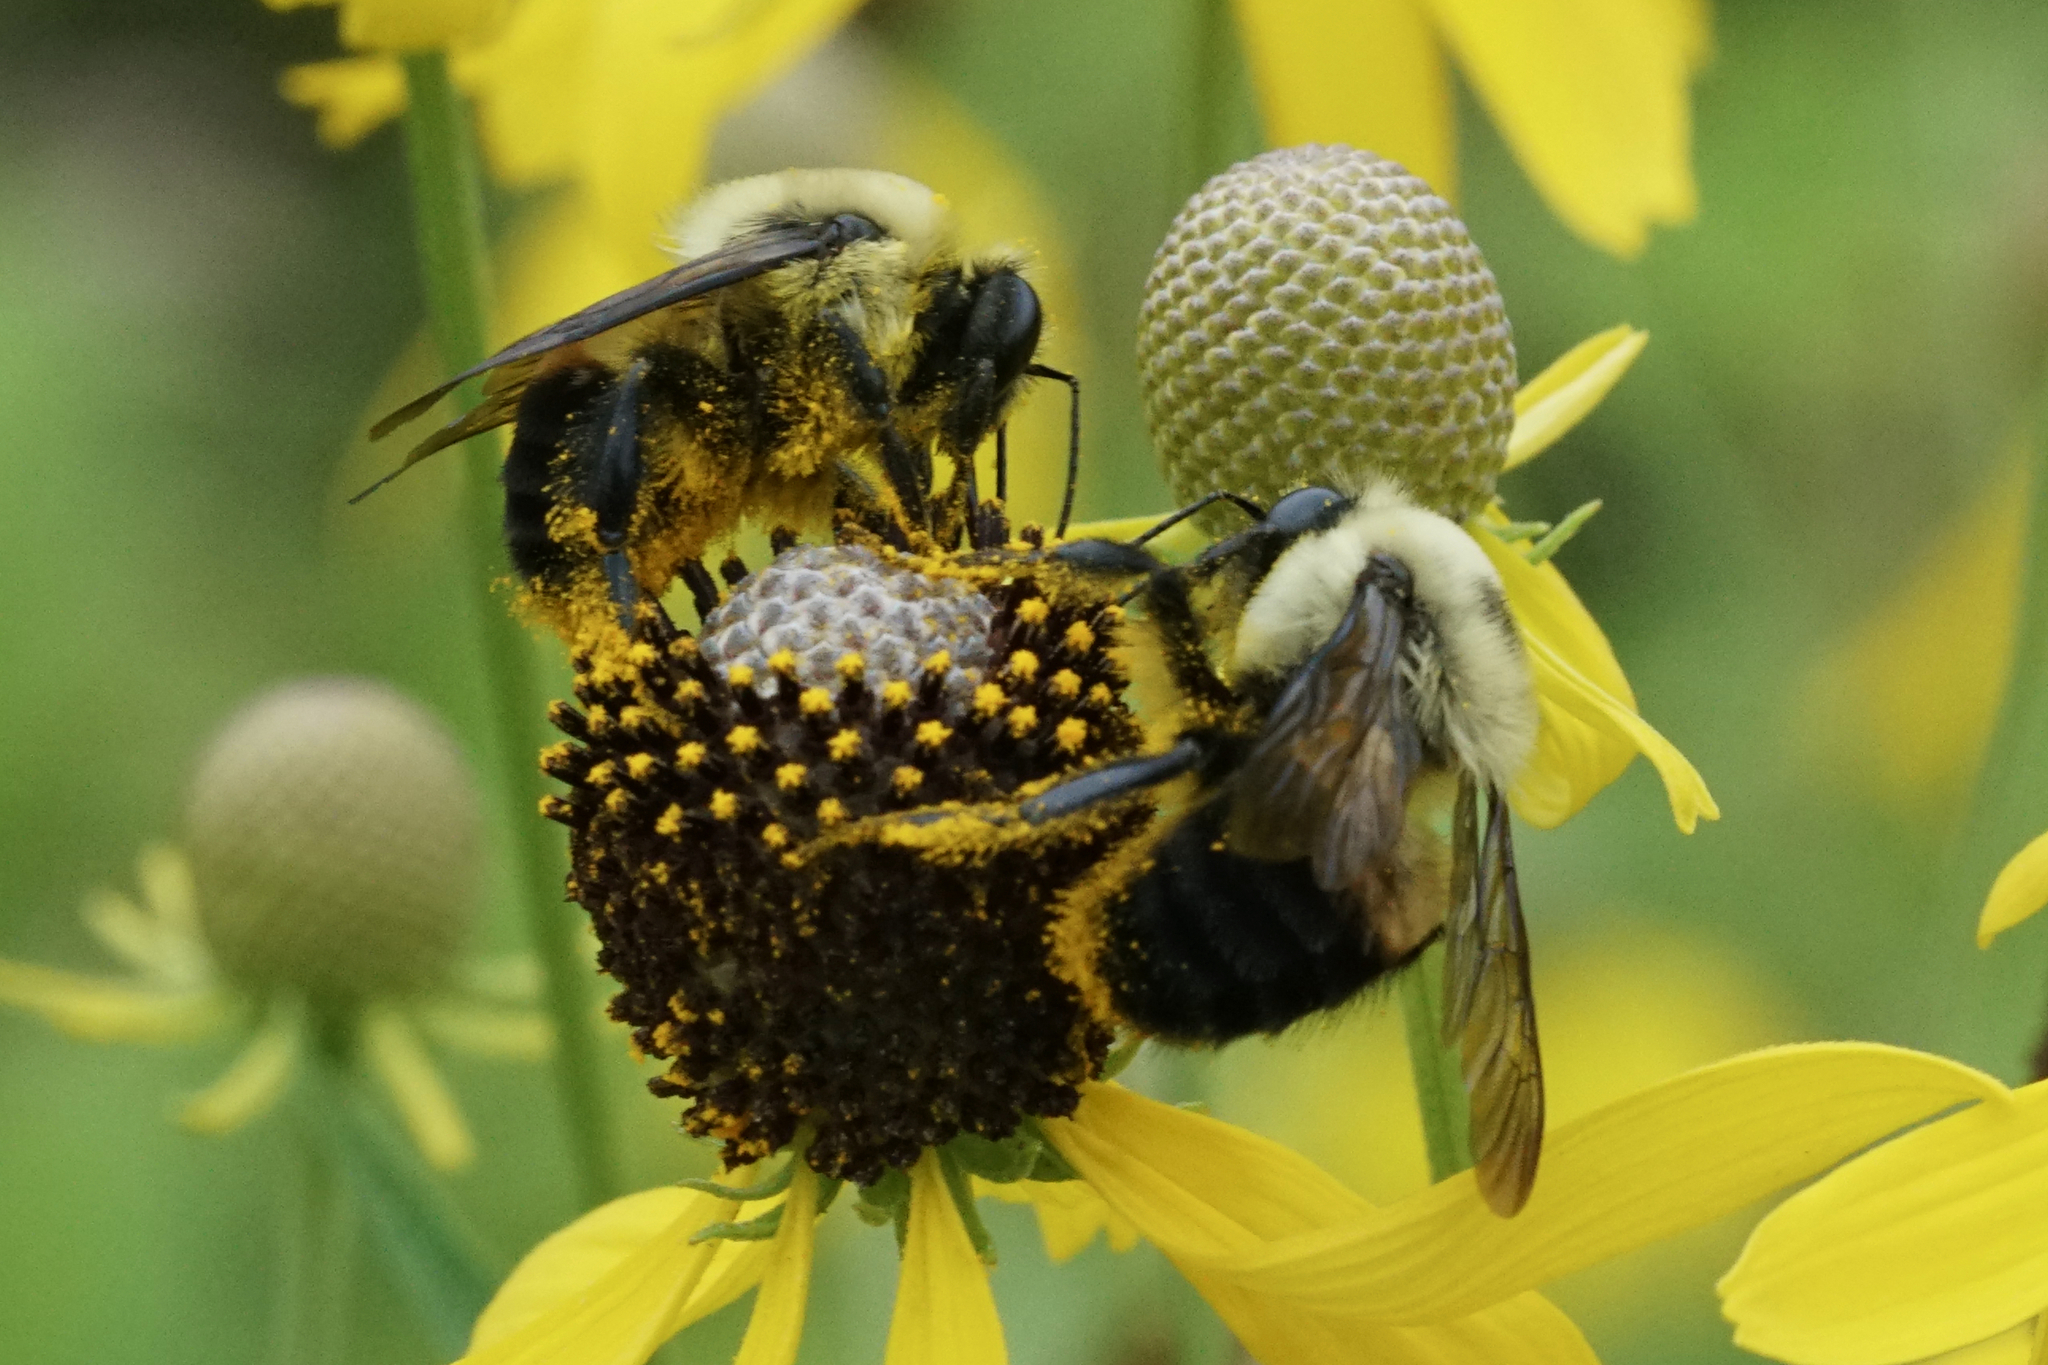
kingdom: Animalia
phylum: Arthropoda
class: Insecta
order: Hymenoptera
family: Apidae
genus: Bombus
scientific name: Bombus griseocollis
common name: Brown-belted bumble bee
